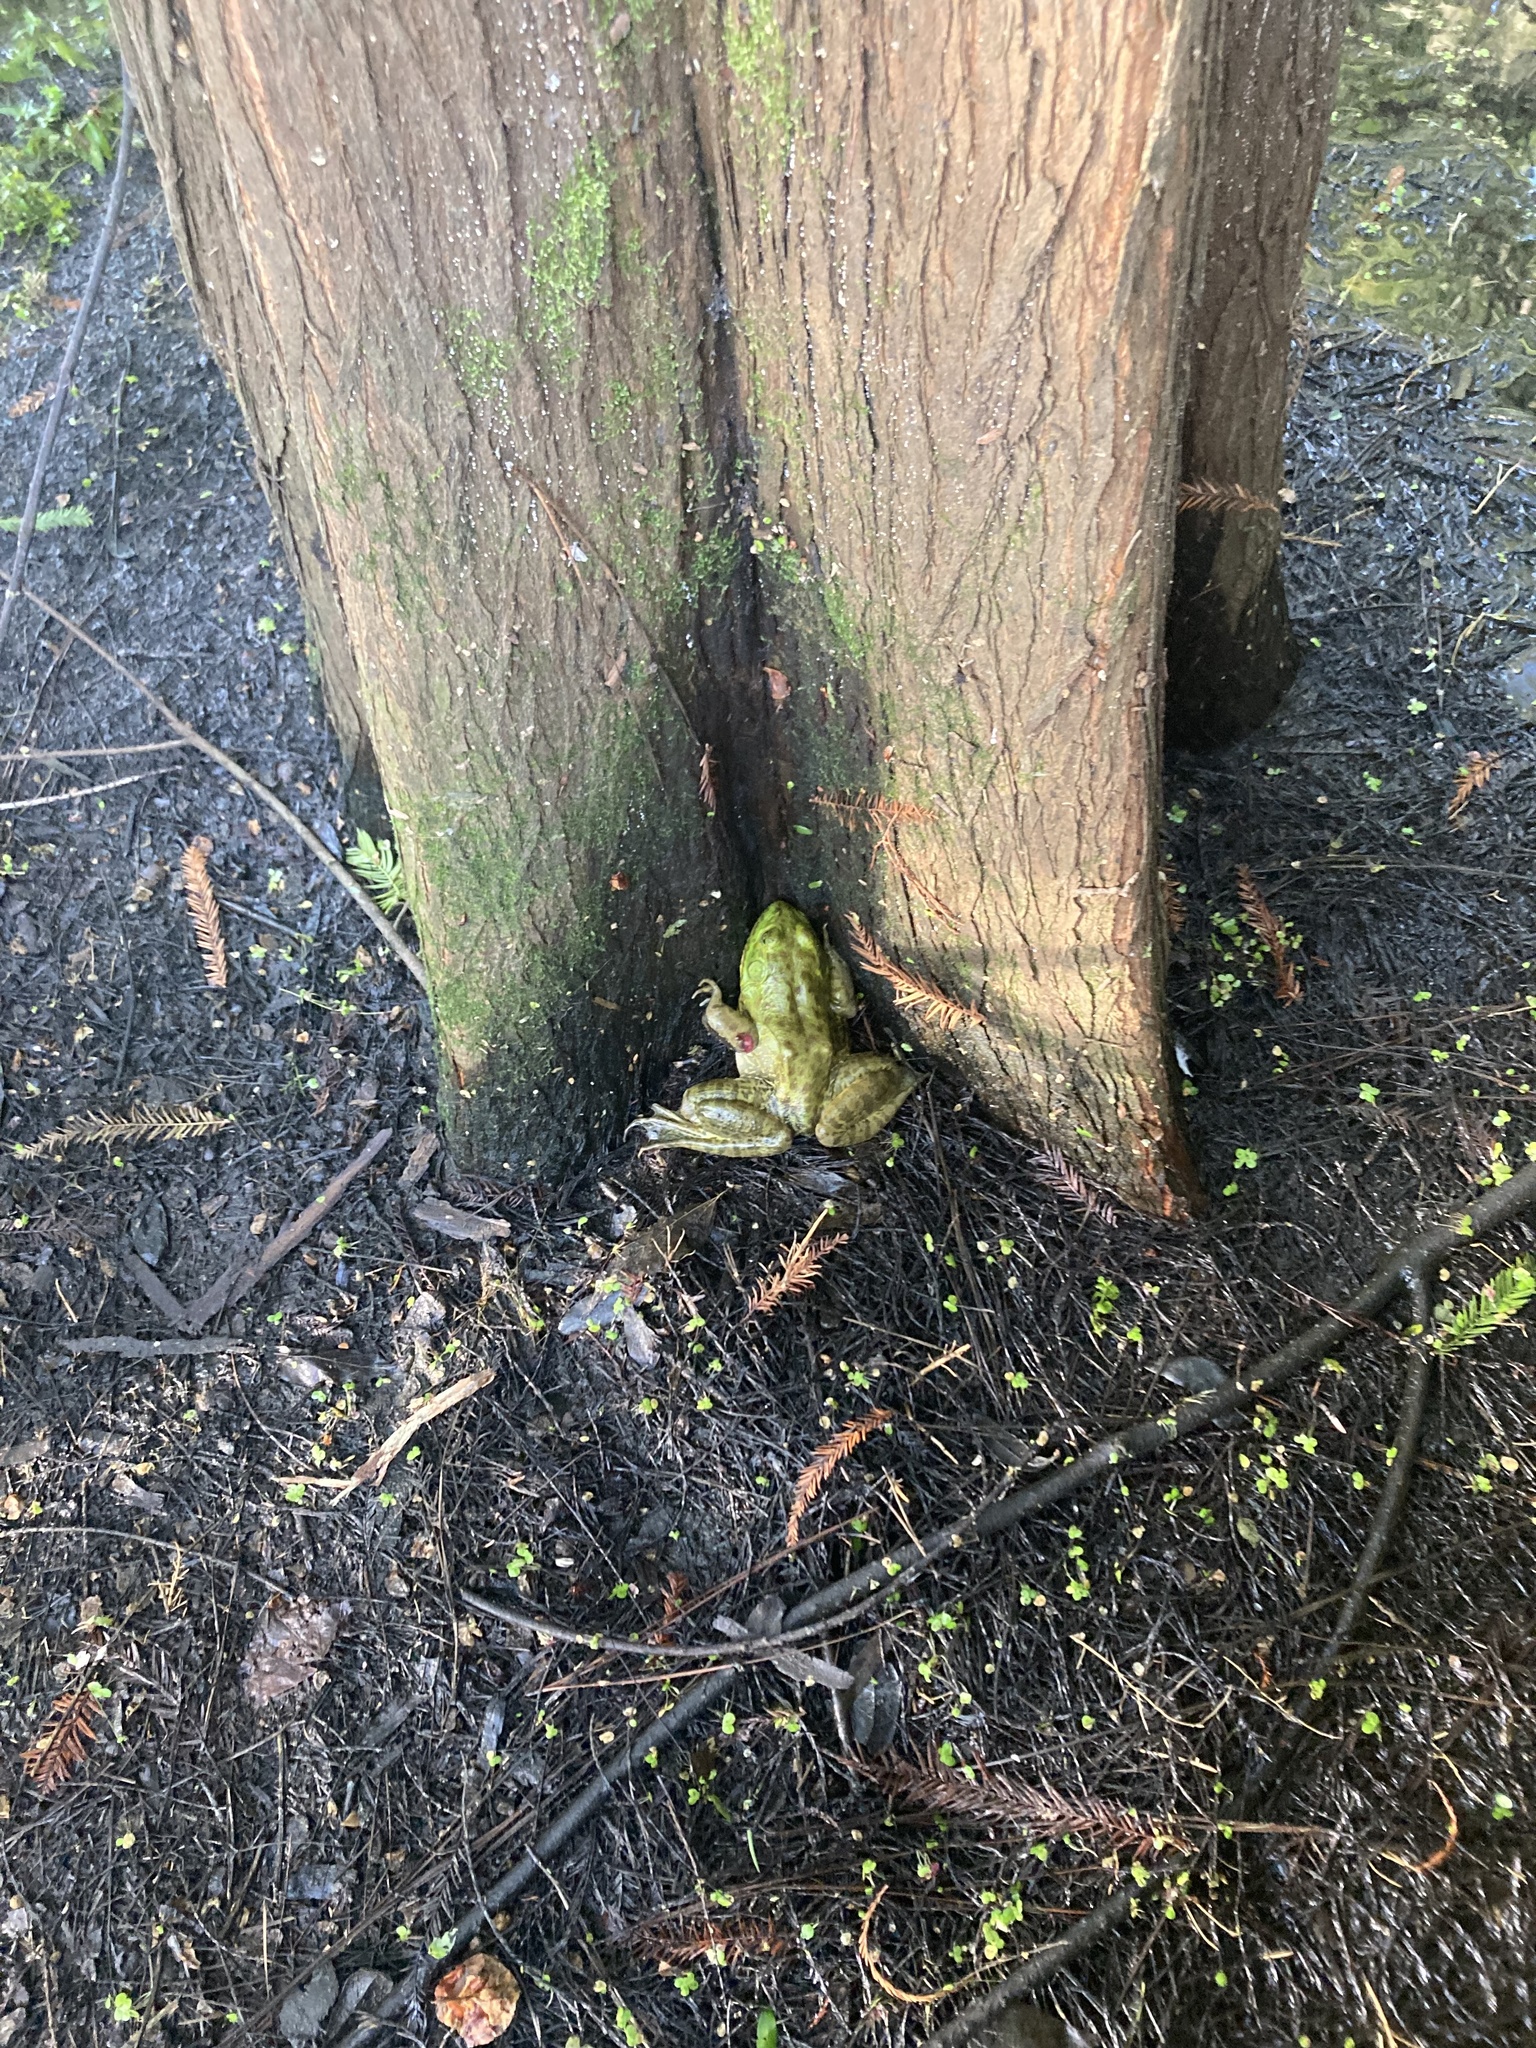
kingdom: Animalia
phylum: Chordata
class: Amphibia
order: Anura
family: Ranidae
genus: Lithobates
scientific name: Lithobates catesbeianus
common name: American bullfrog
